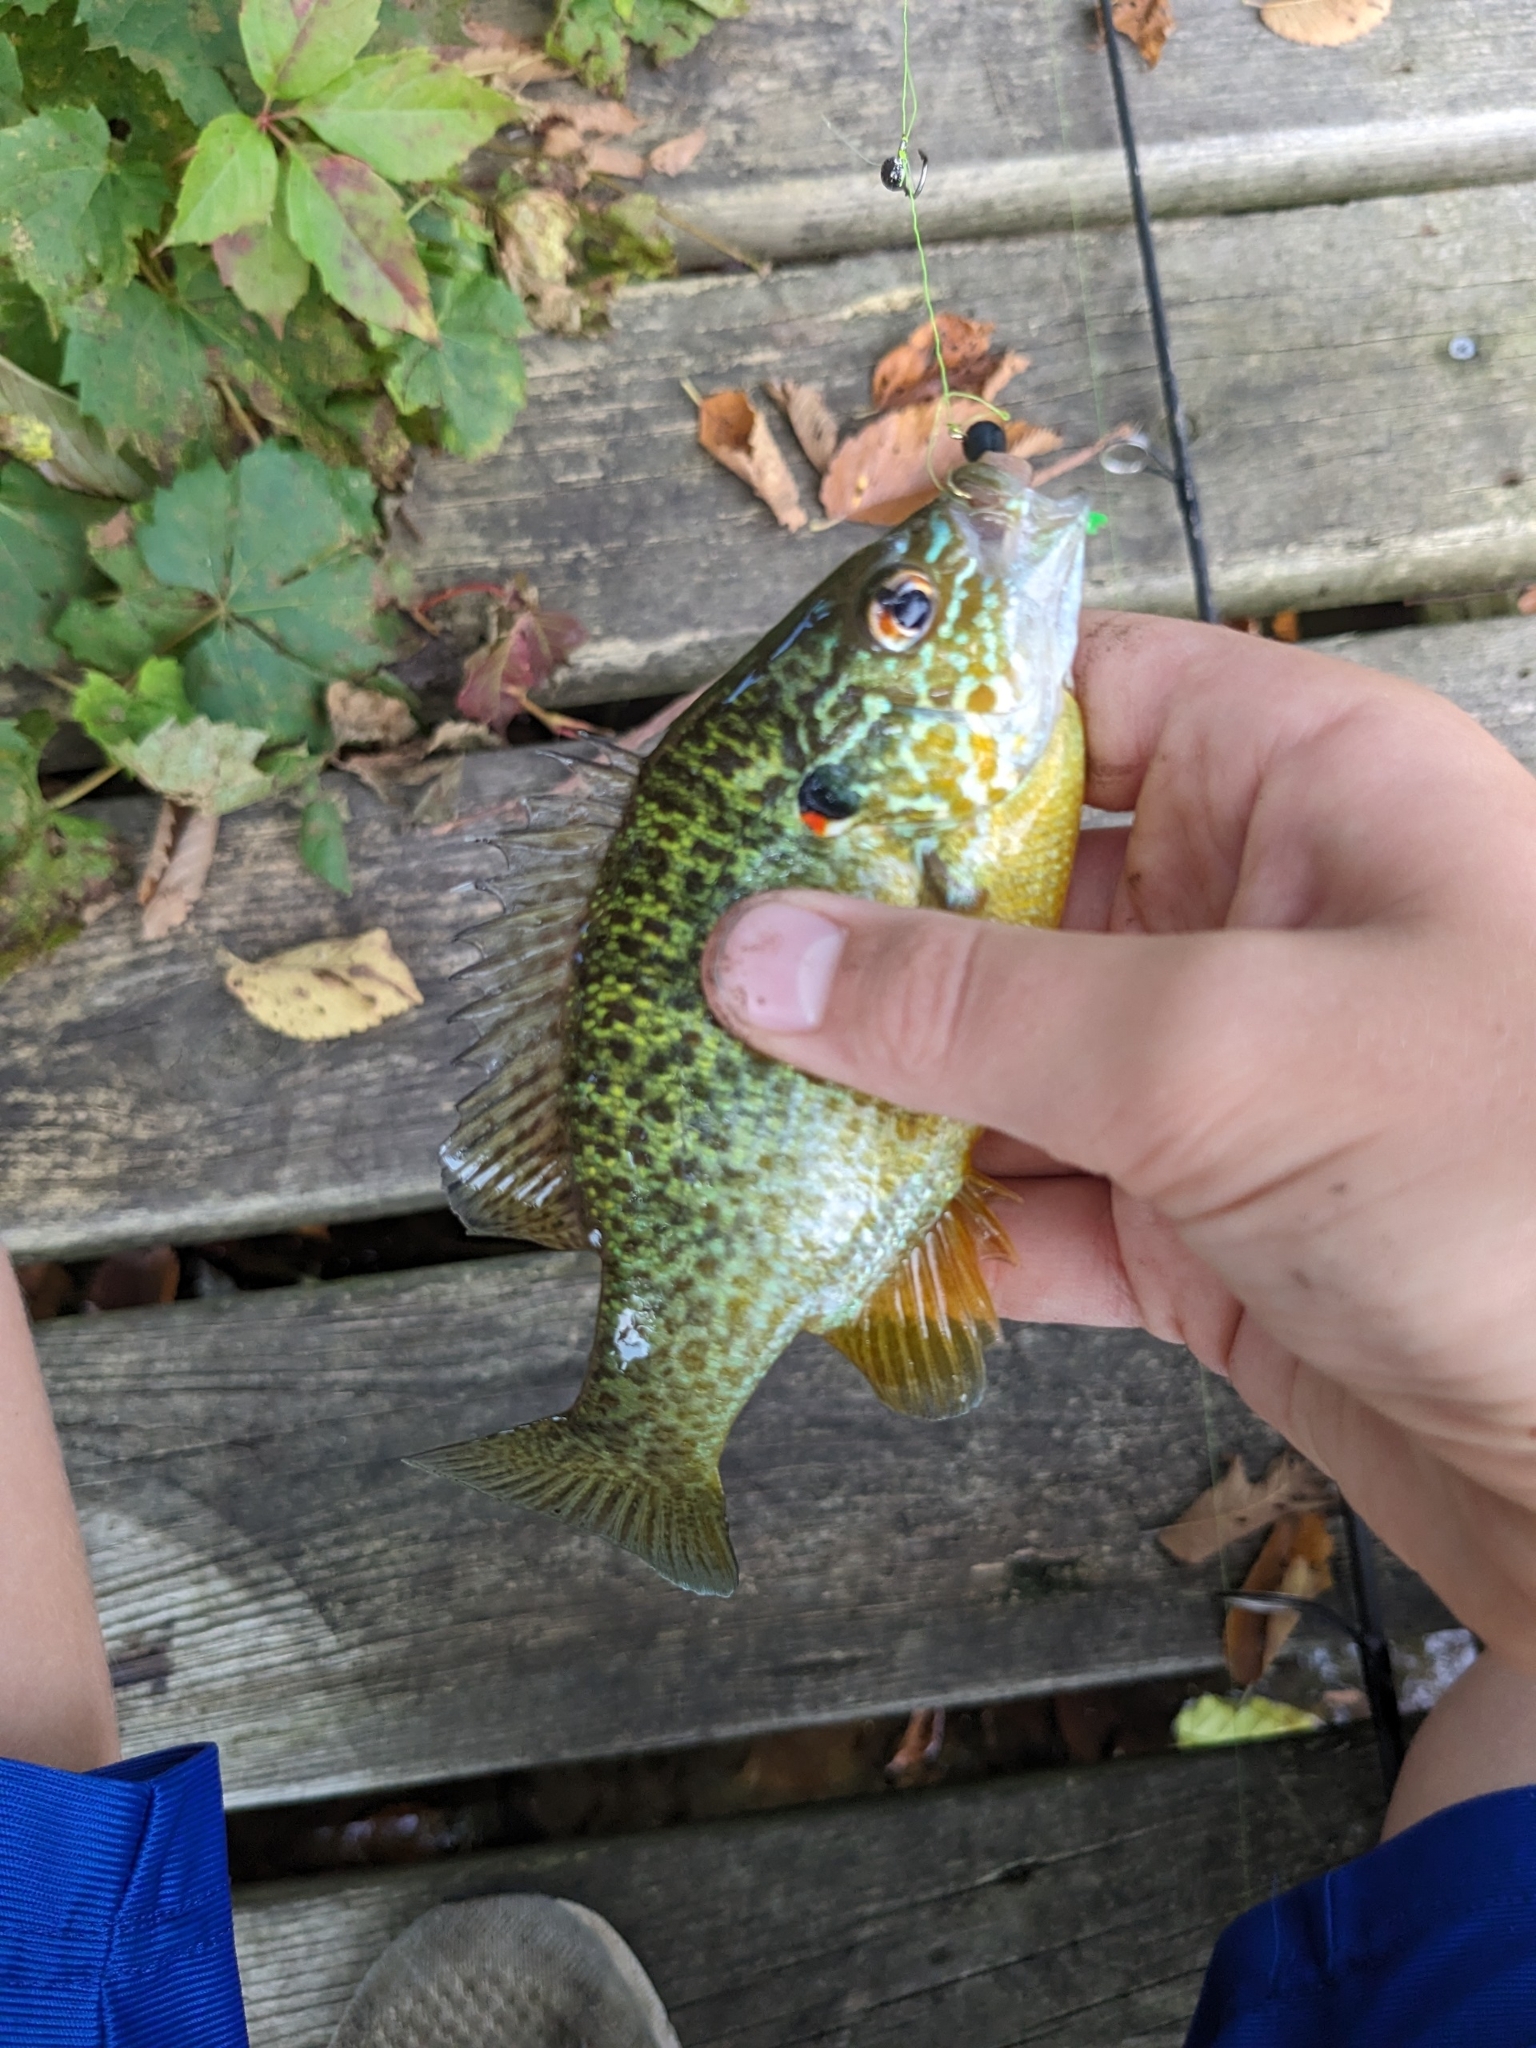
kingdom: Animalia
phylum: Chordata
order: Perciformes
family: Centrarchidae
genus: Lepomis
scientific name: Lepomis gibbosus
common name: Pumpkinseed
